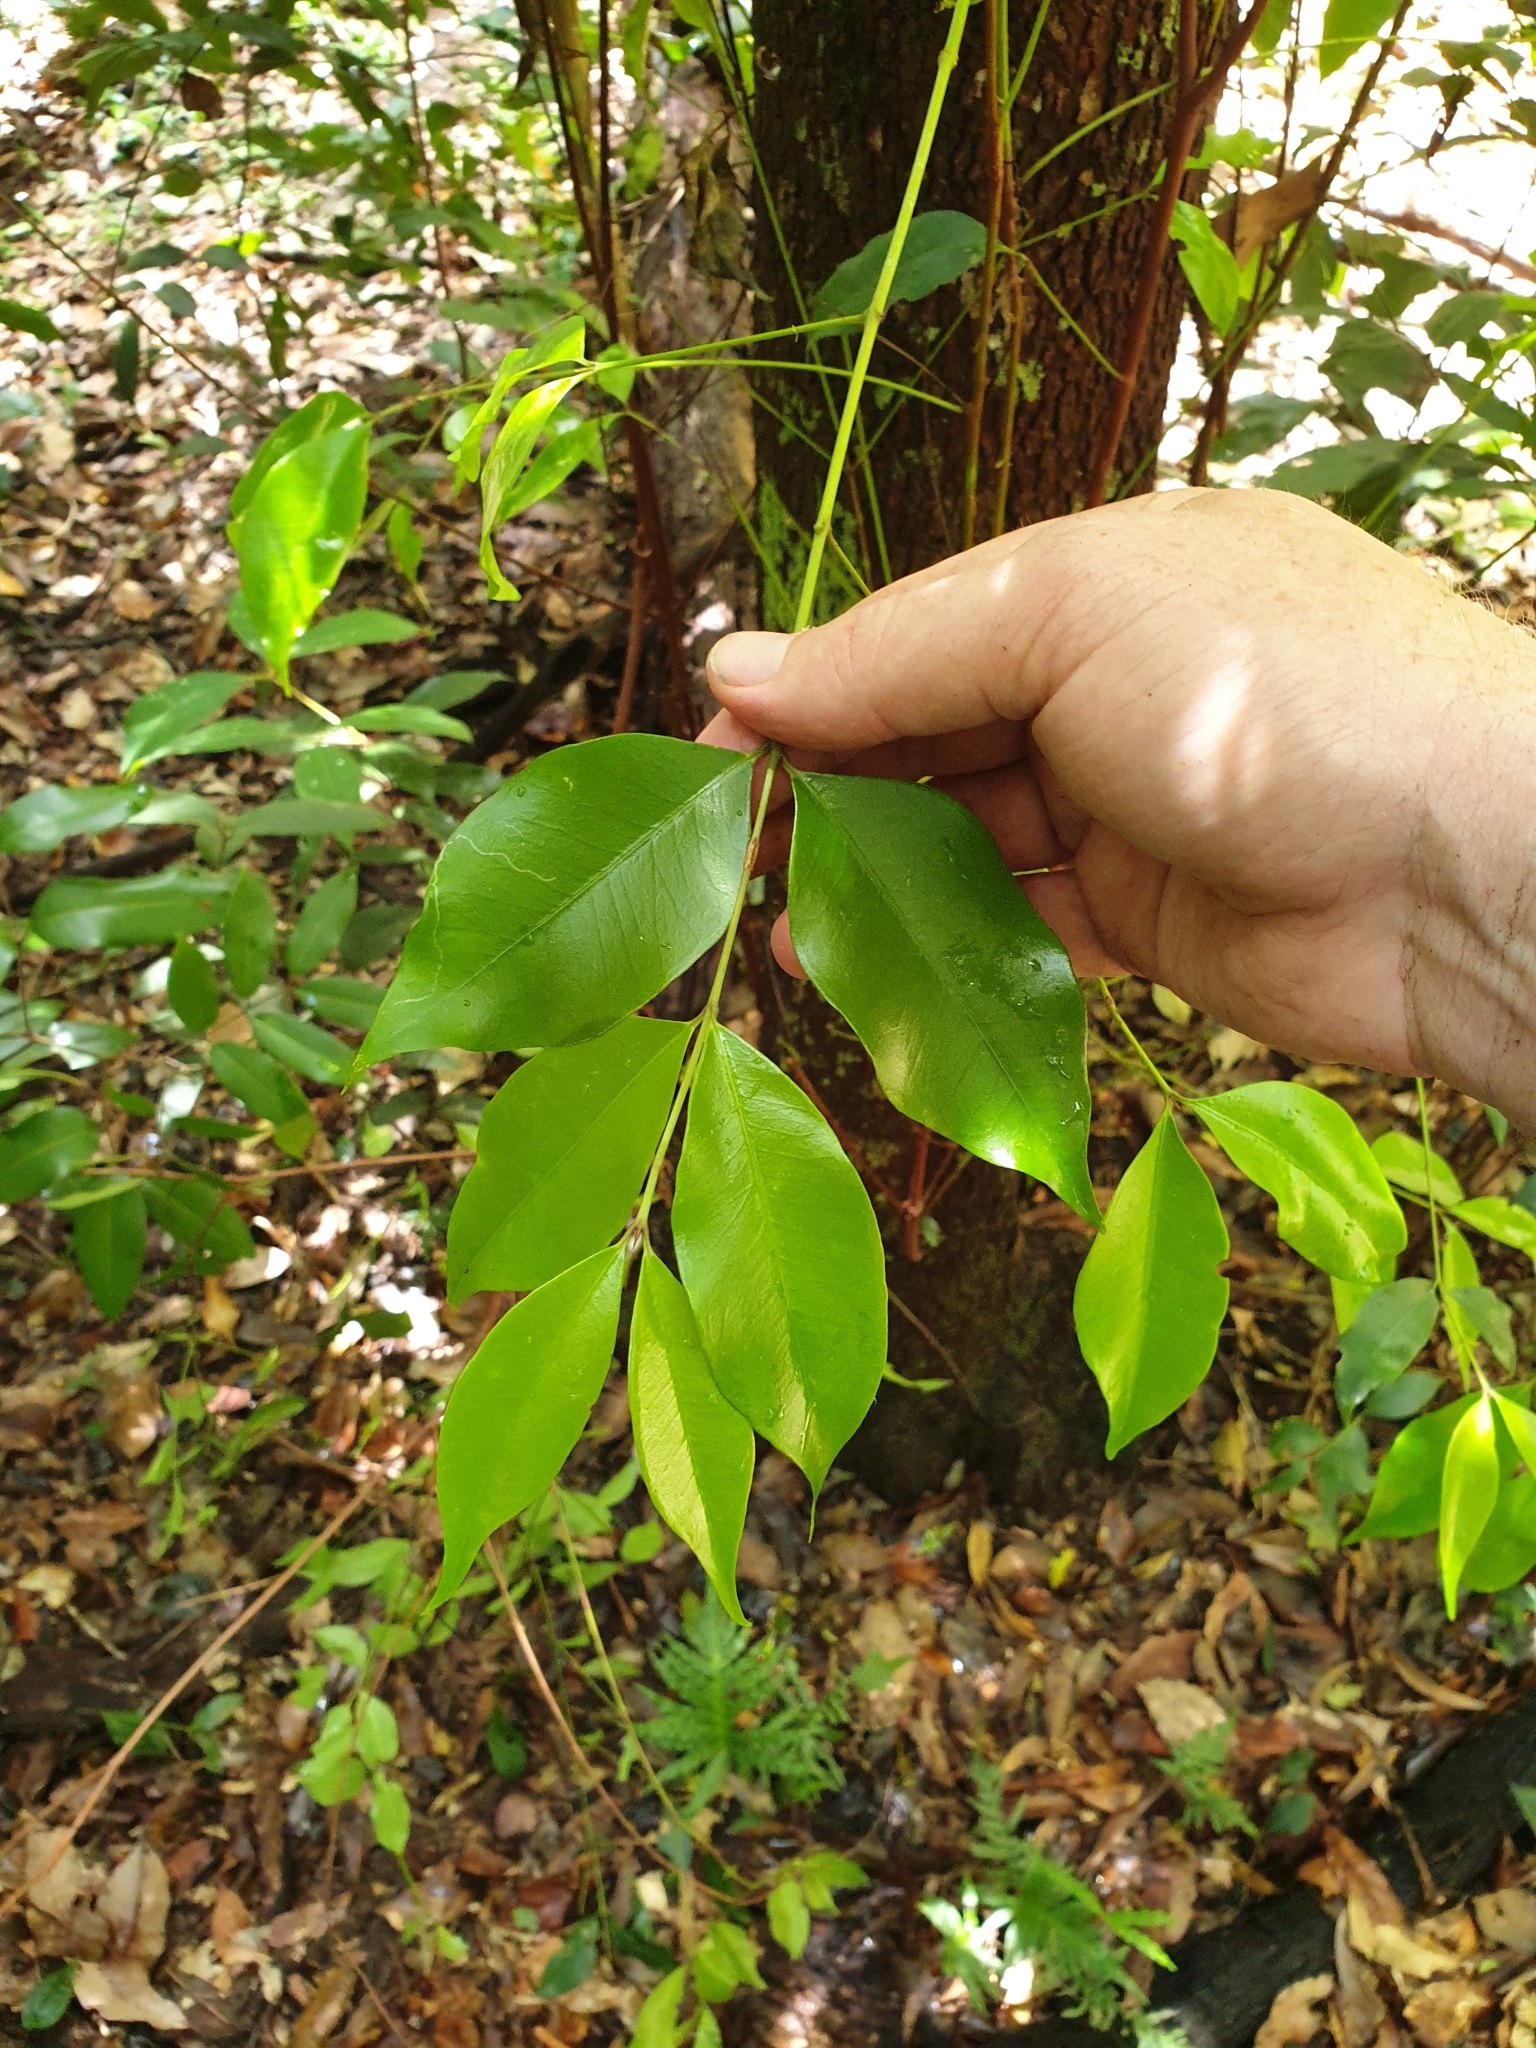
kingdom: Plantae
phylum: Tracheophyta
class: Magnoliopsida
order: Myrtales
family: Myrtaceae
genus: Syzygium
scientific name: Syzygium oleosum
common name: Oily satin-ash
